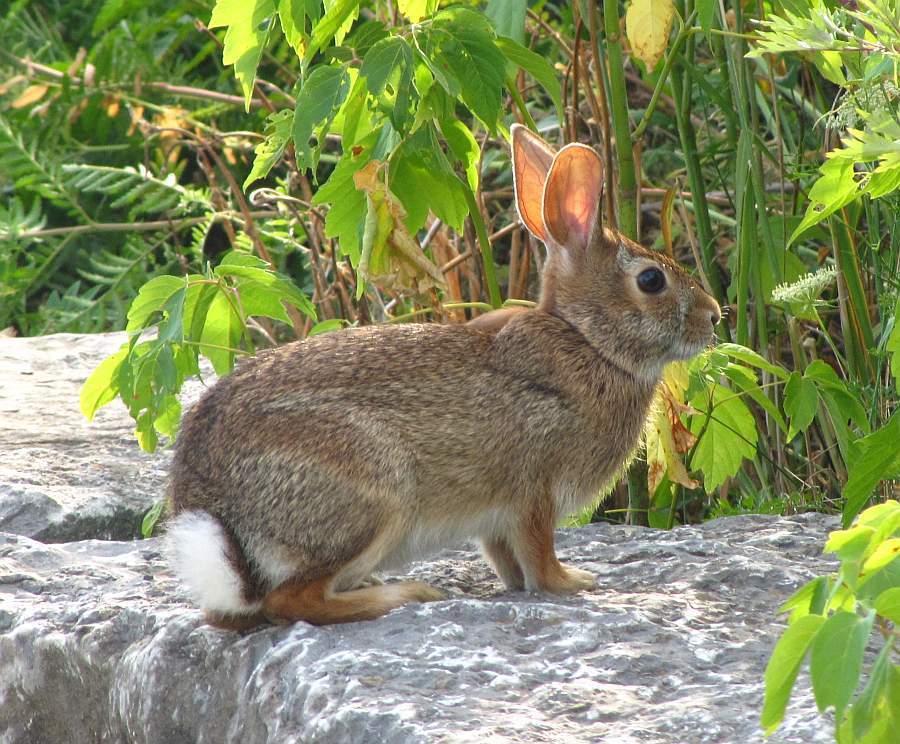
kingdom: Animalia
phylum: Chordata
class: Mammalia
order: Lagomorpha
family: Leporidae
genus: Sylvilagus
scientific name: Sylvilagus floridanus
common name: Eastern cottontail
